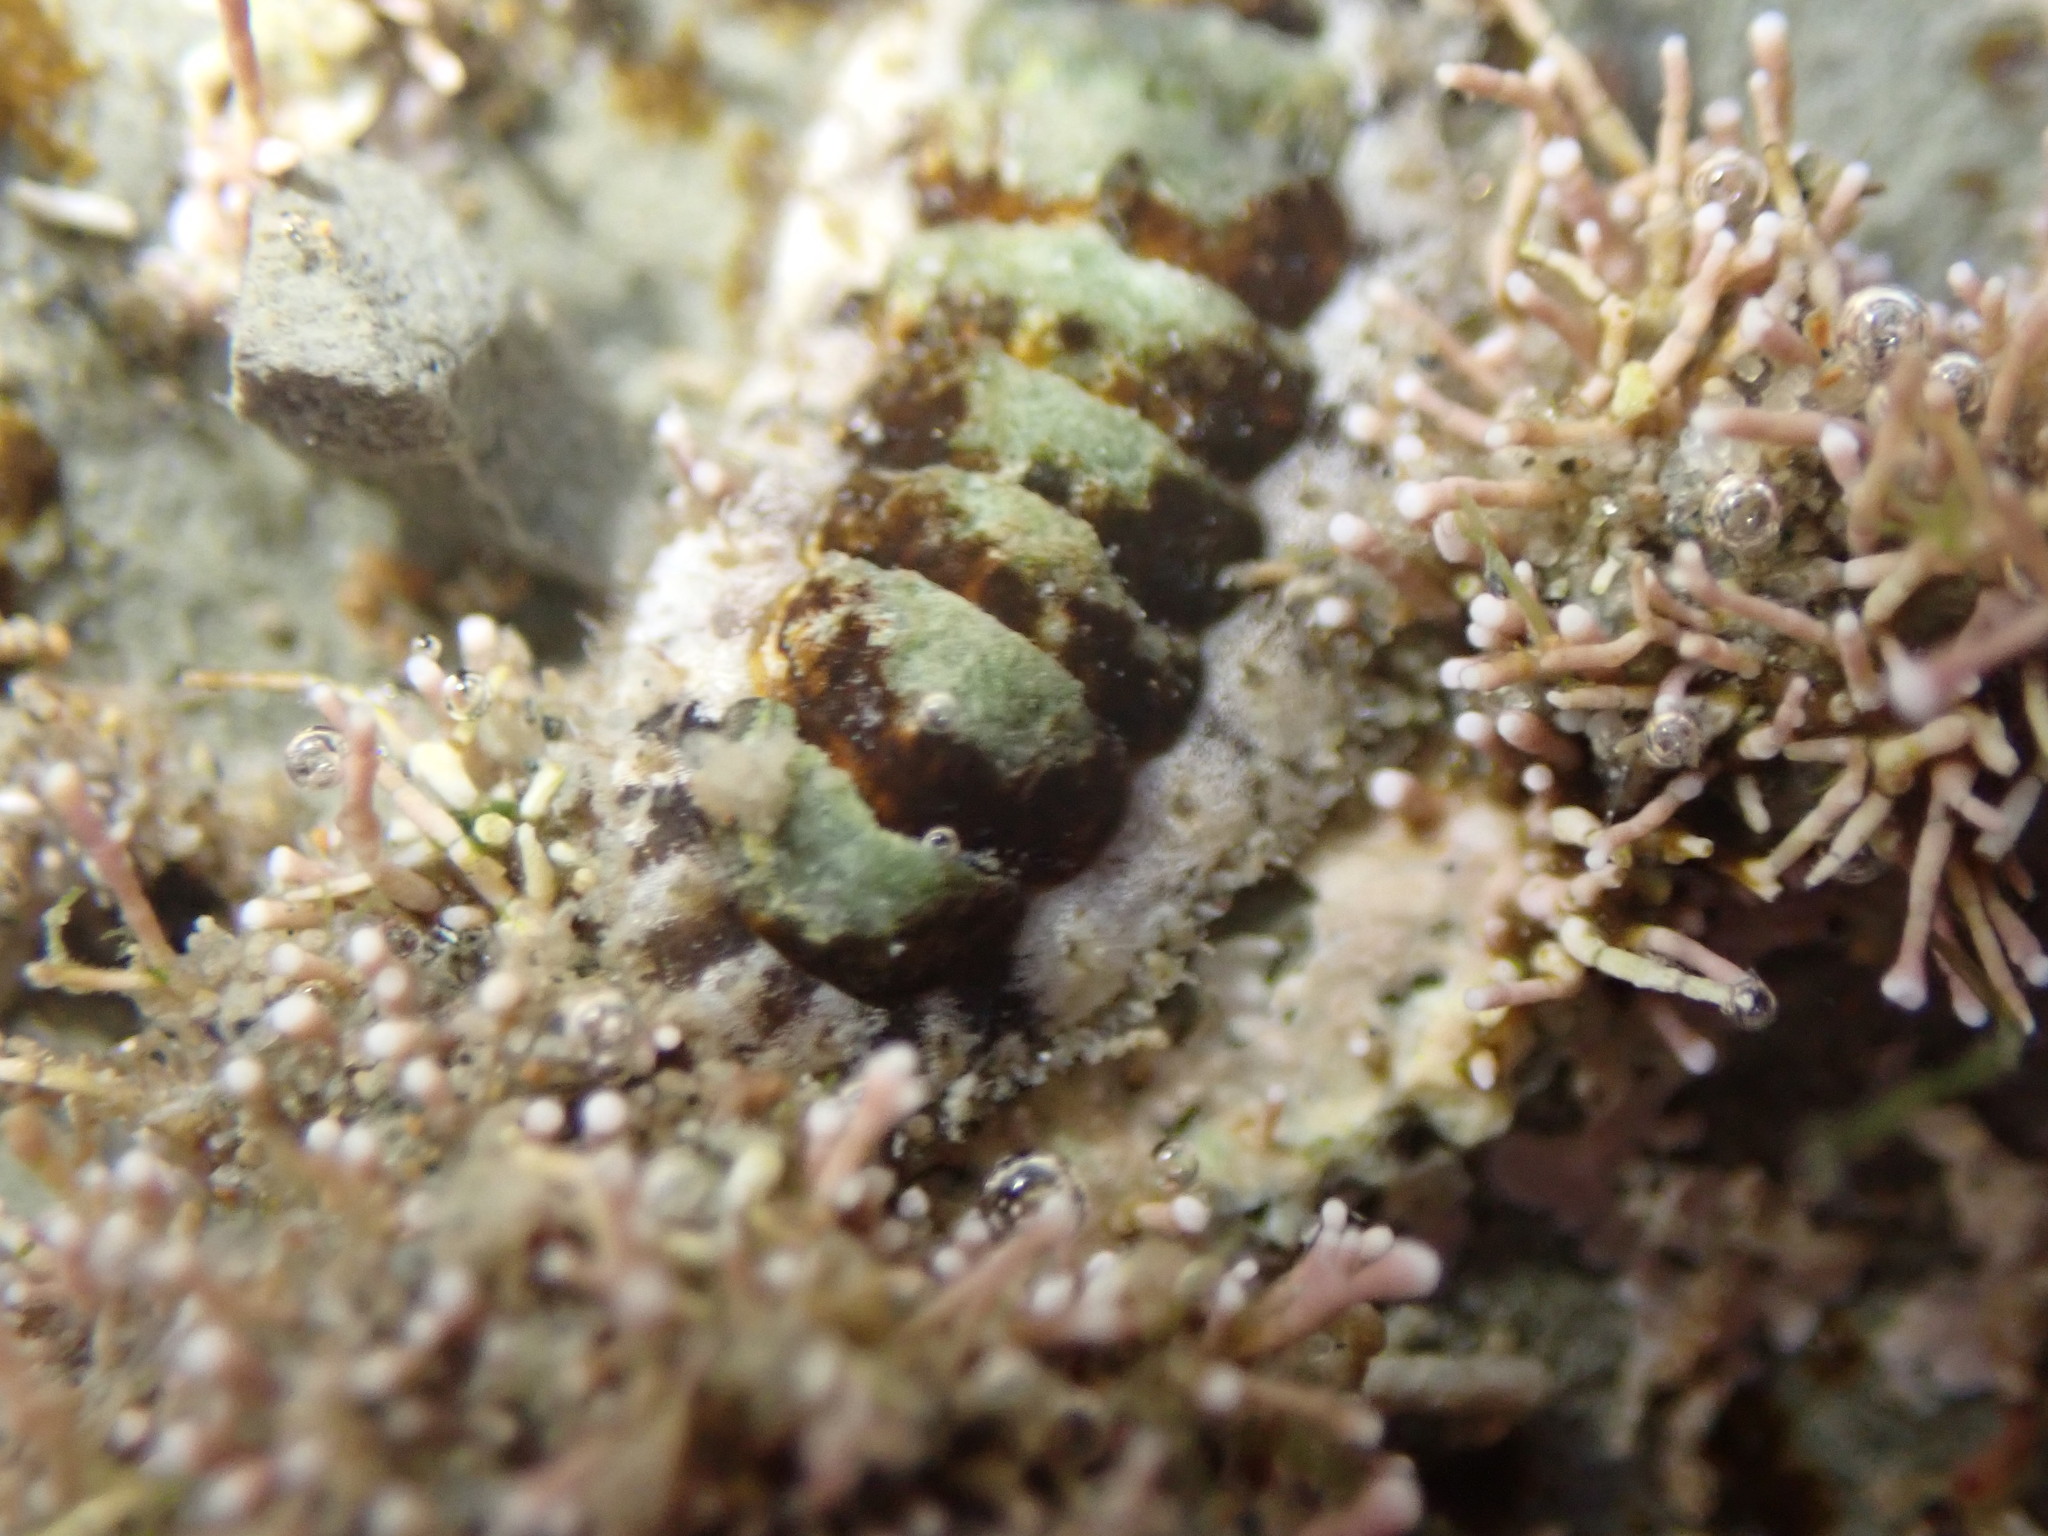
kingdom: Animalia
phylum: Mollusca
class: Polyplacophora
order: Chitonida
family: Mopaliidae
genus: Plaxiphora
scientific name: Plaxiphora caelata
